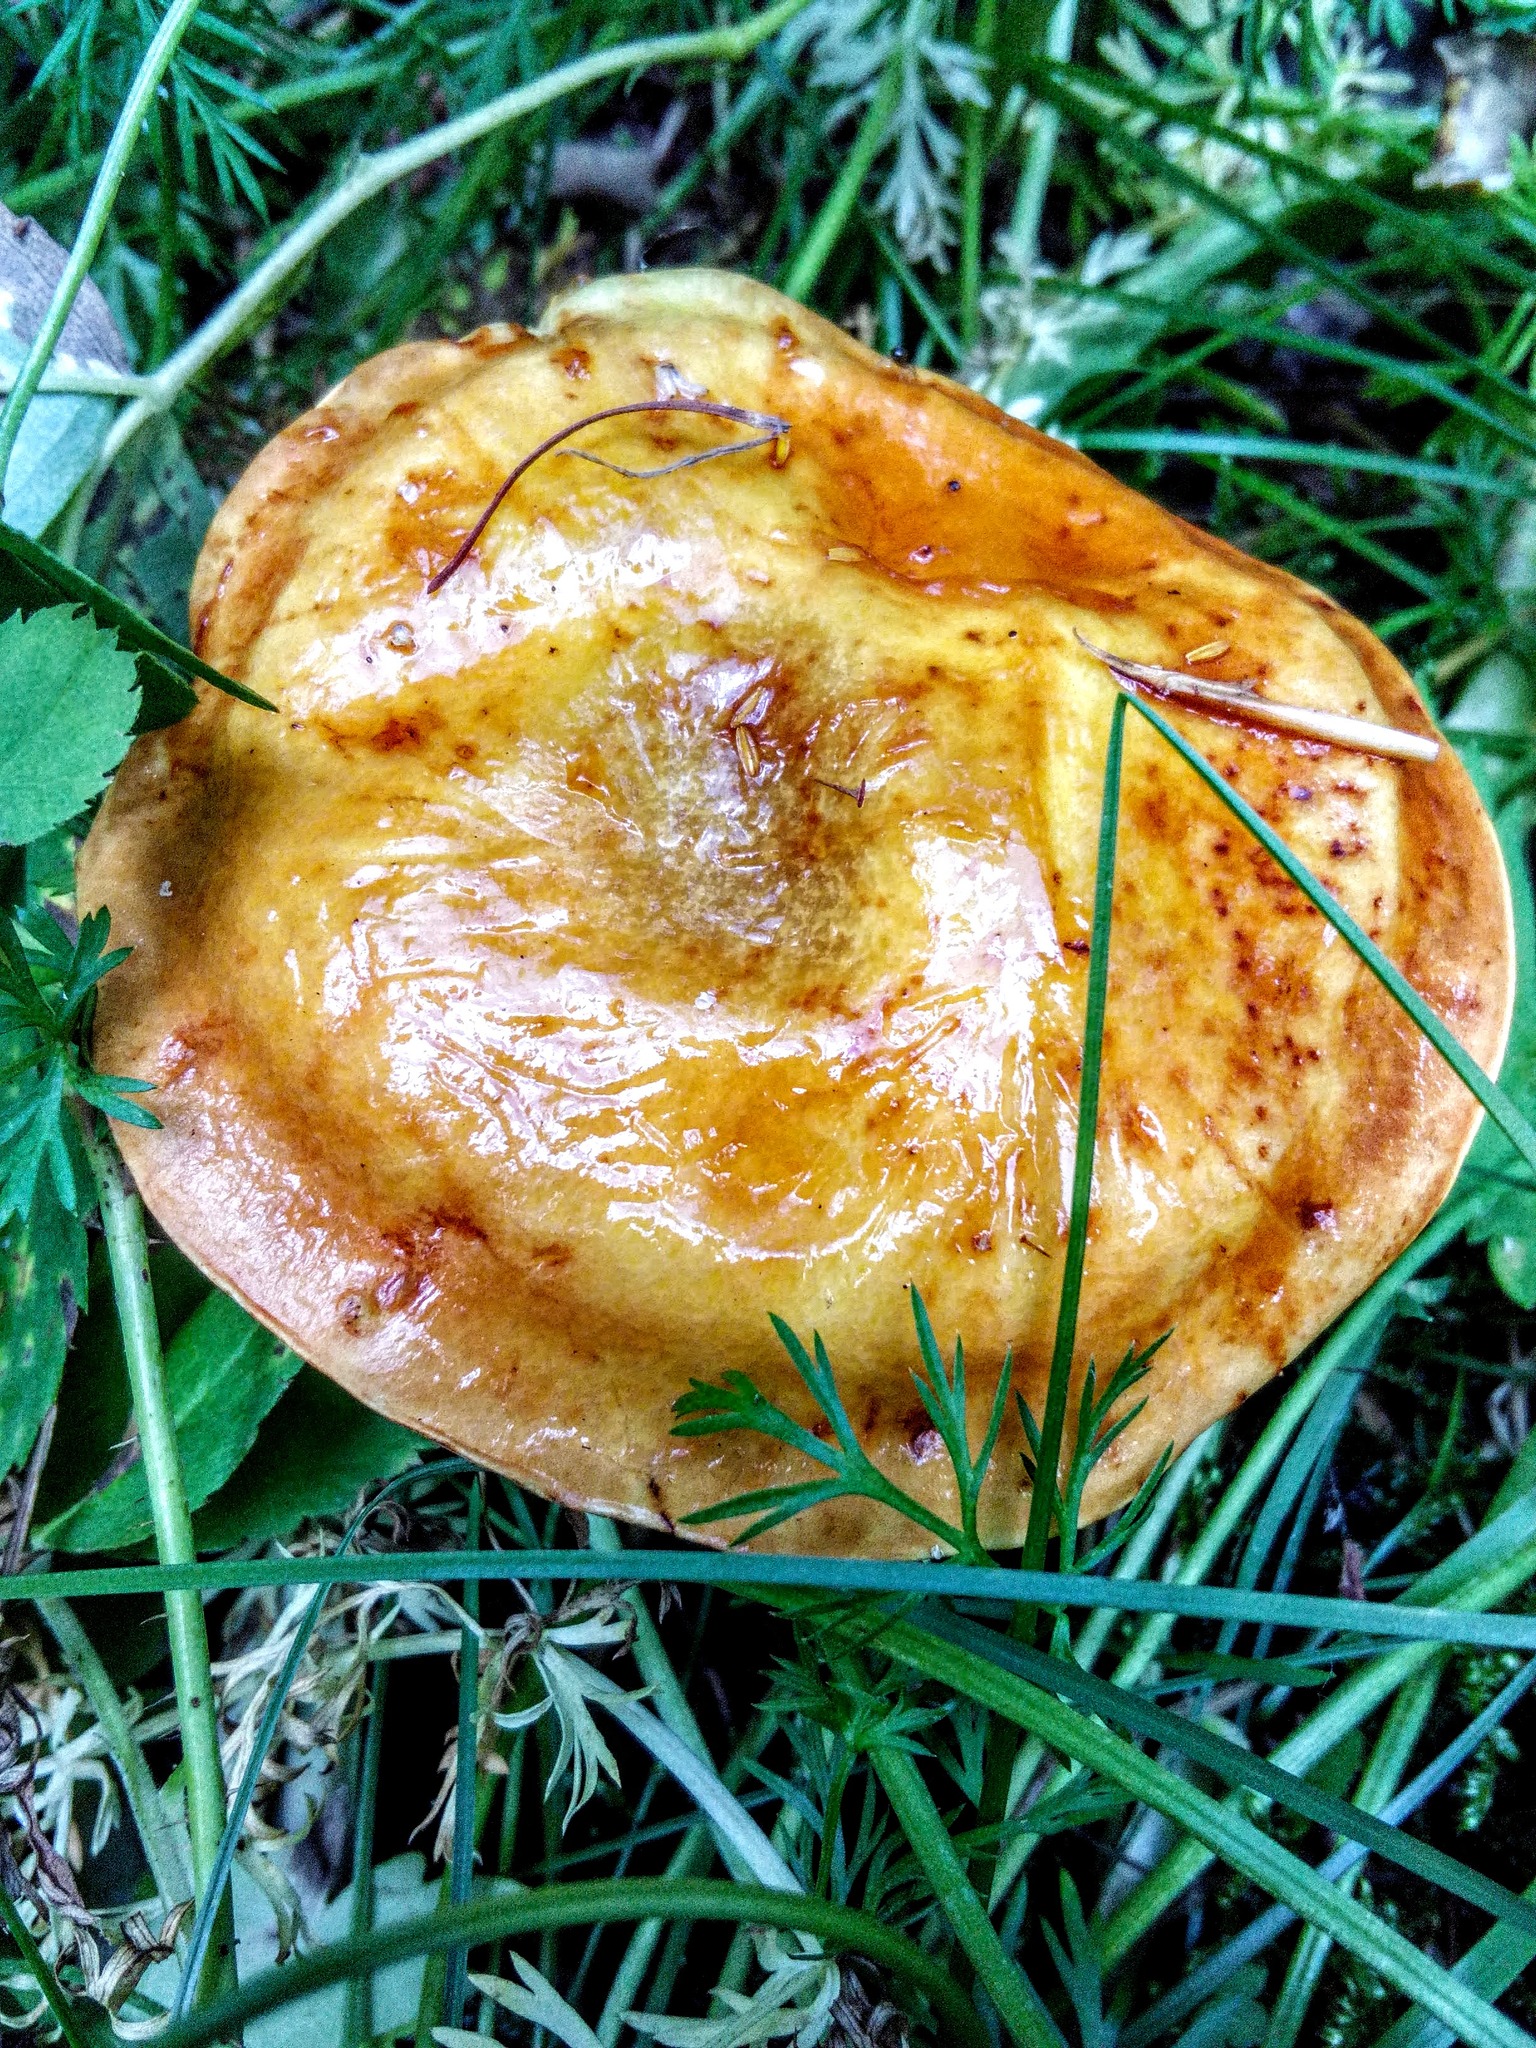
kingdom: Fungi
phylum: Basidiomycota
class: Agaricomycetes
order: Boletales
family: Suillaceae
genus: Suillus
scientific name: Suillus grevillei
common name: Larch bolete
